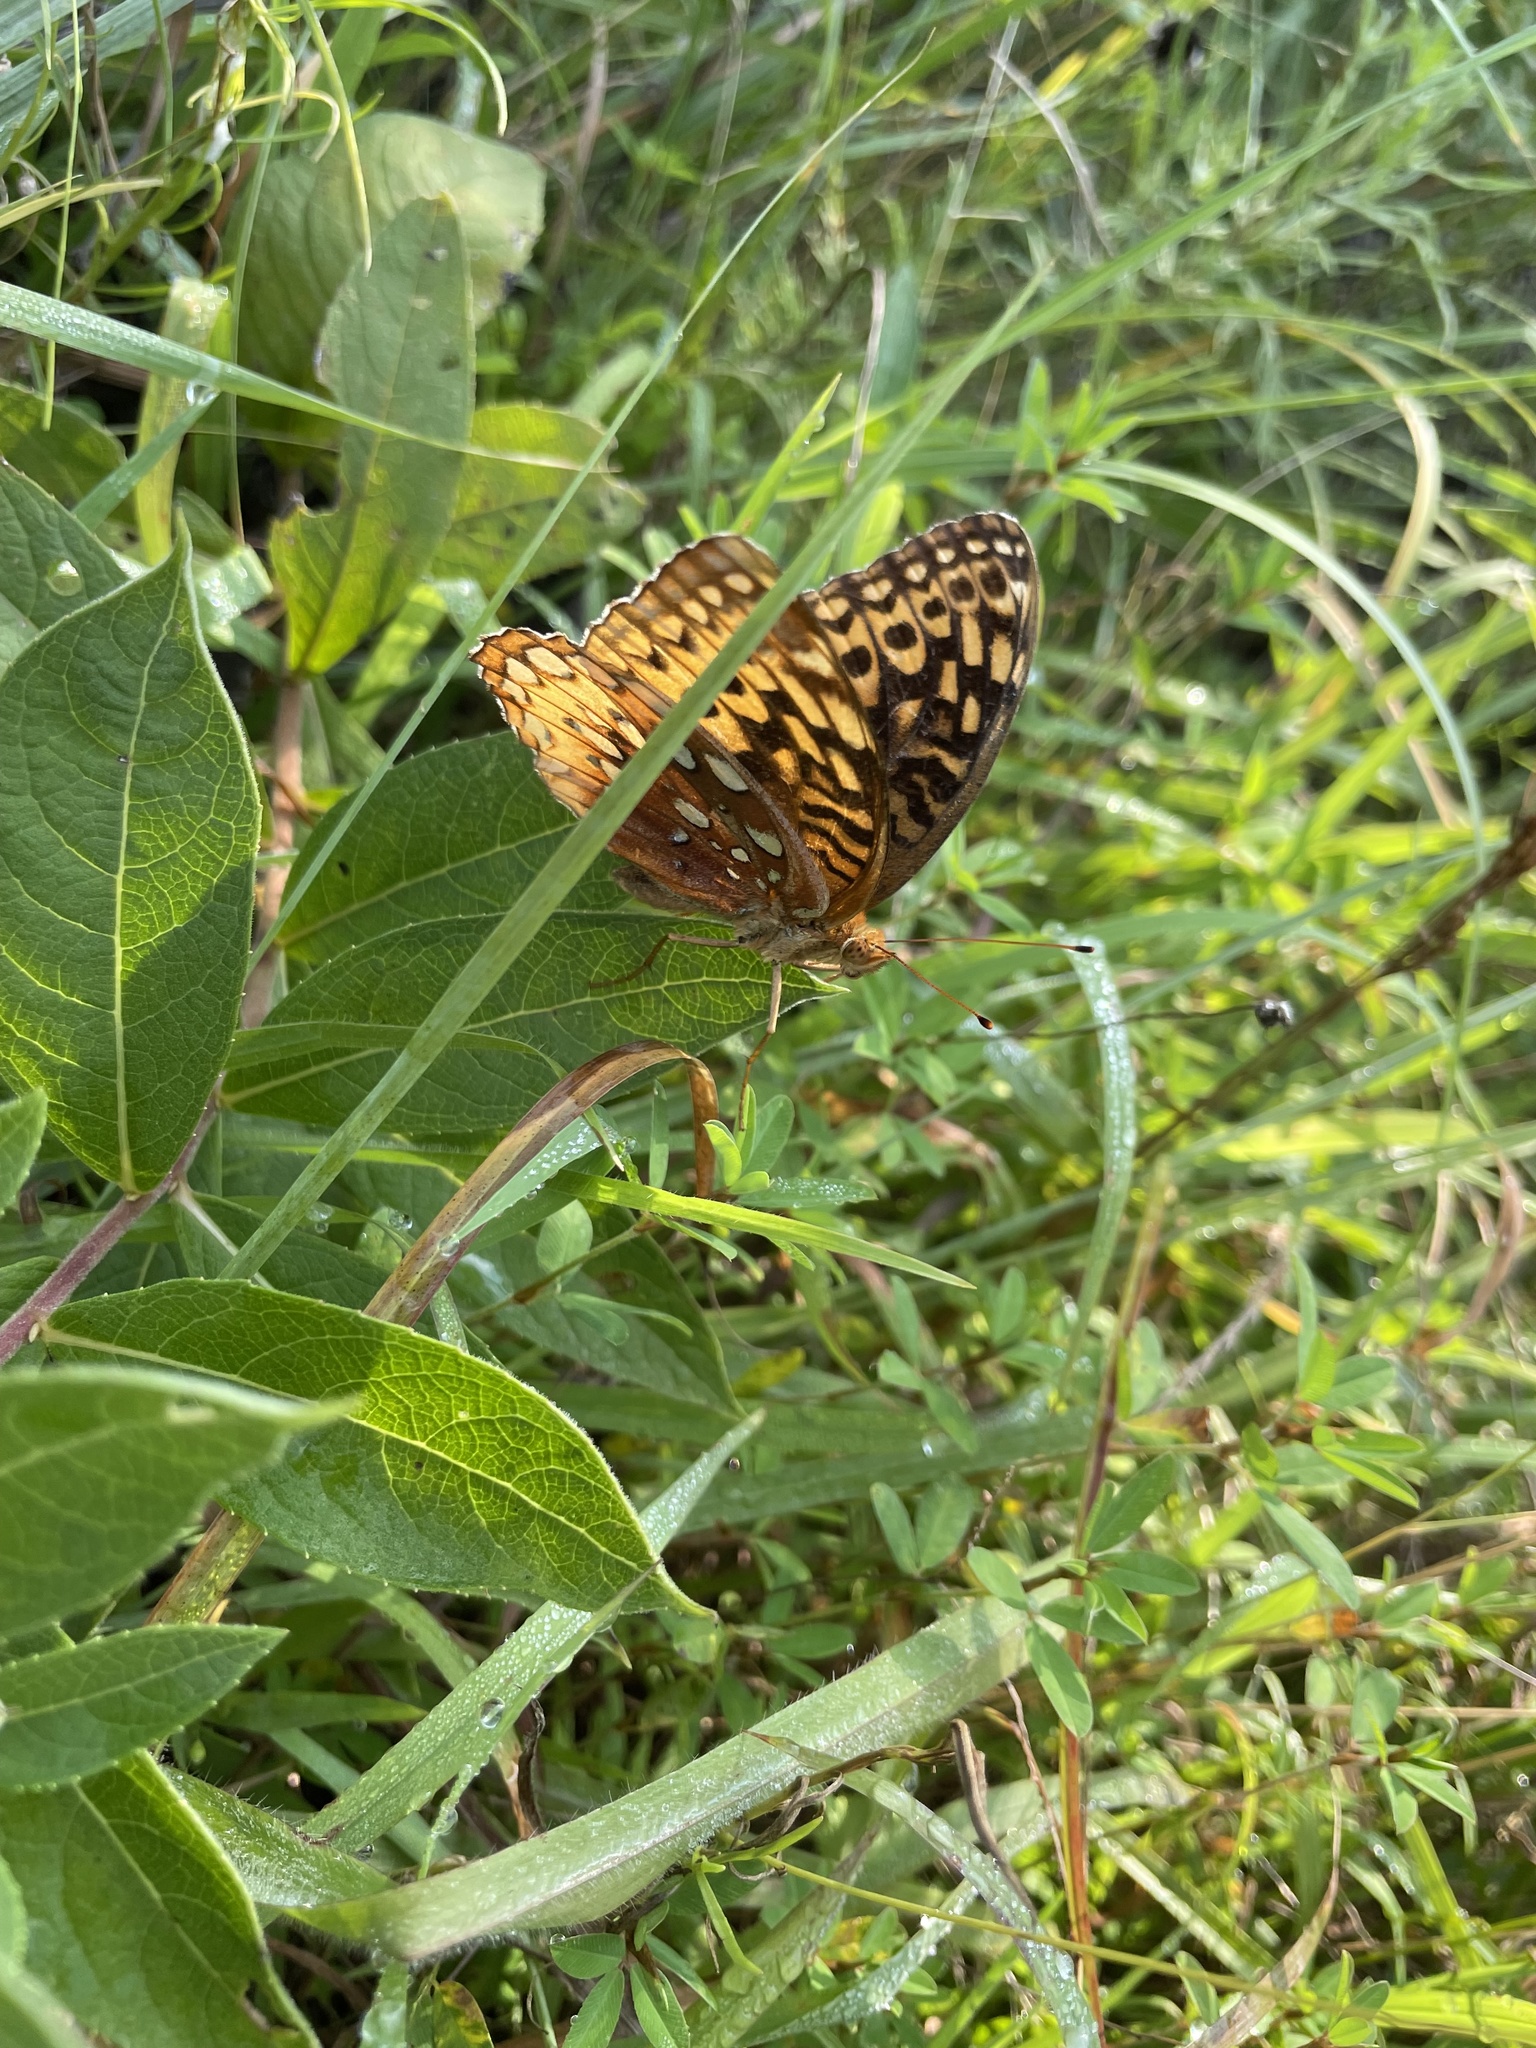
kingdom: Animalia
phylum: Arthropoda
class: Insecta
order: Lepidoptera
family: Nymphalidae
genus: Speyeria
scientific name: Speyeria cybele
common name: Great spangled fritillary
